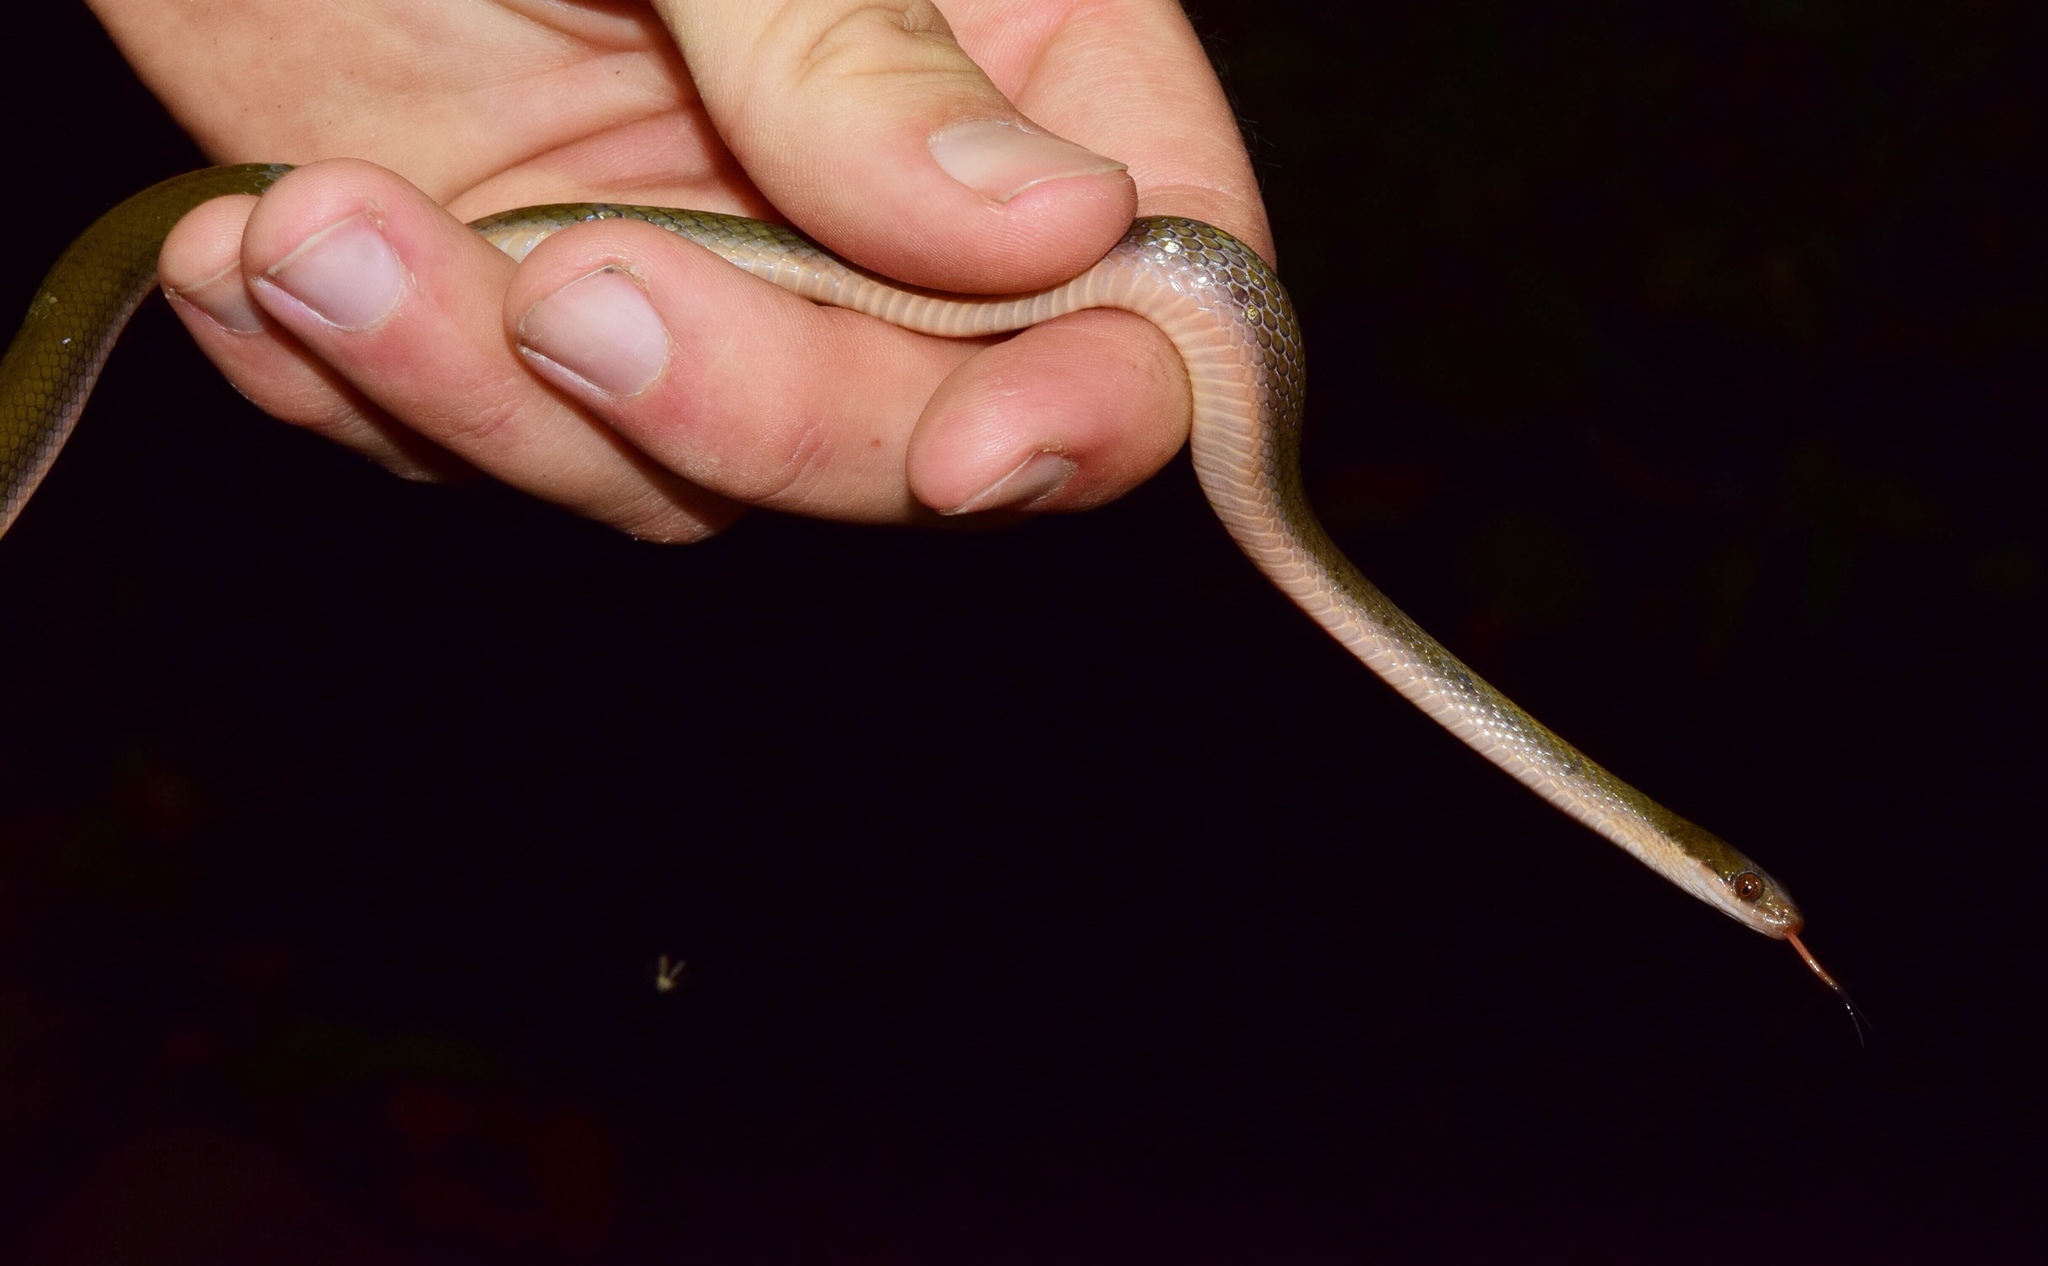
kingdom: Animalia
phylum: Chordata
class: Squamata
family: Lamprophiidae
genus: Lycodonomorphus
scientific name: Lycodonomorphus rufulus
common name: Brown water snake
